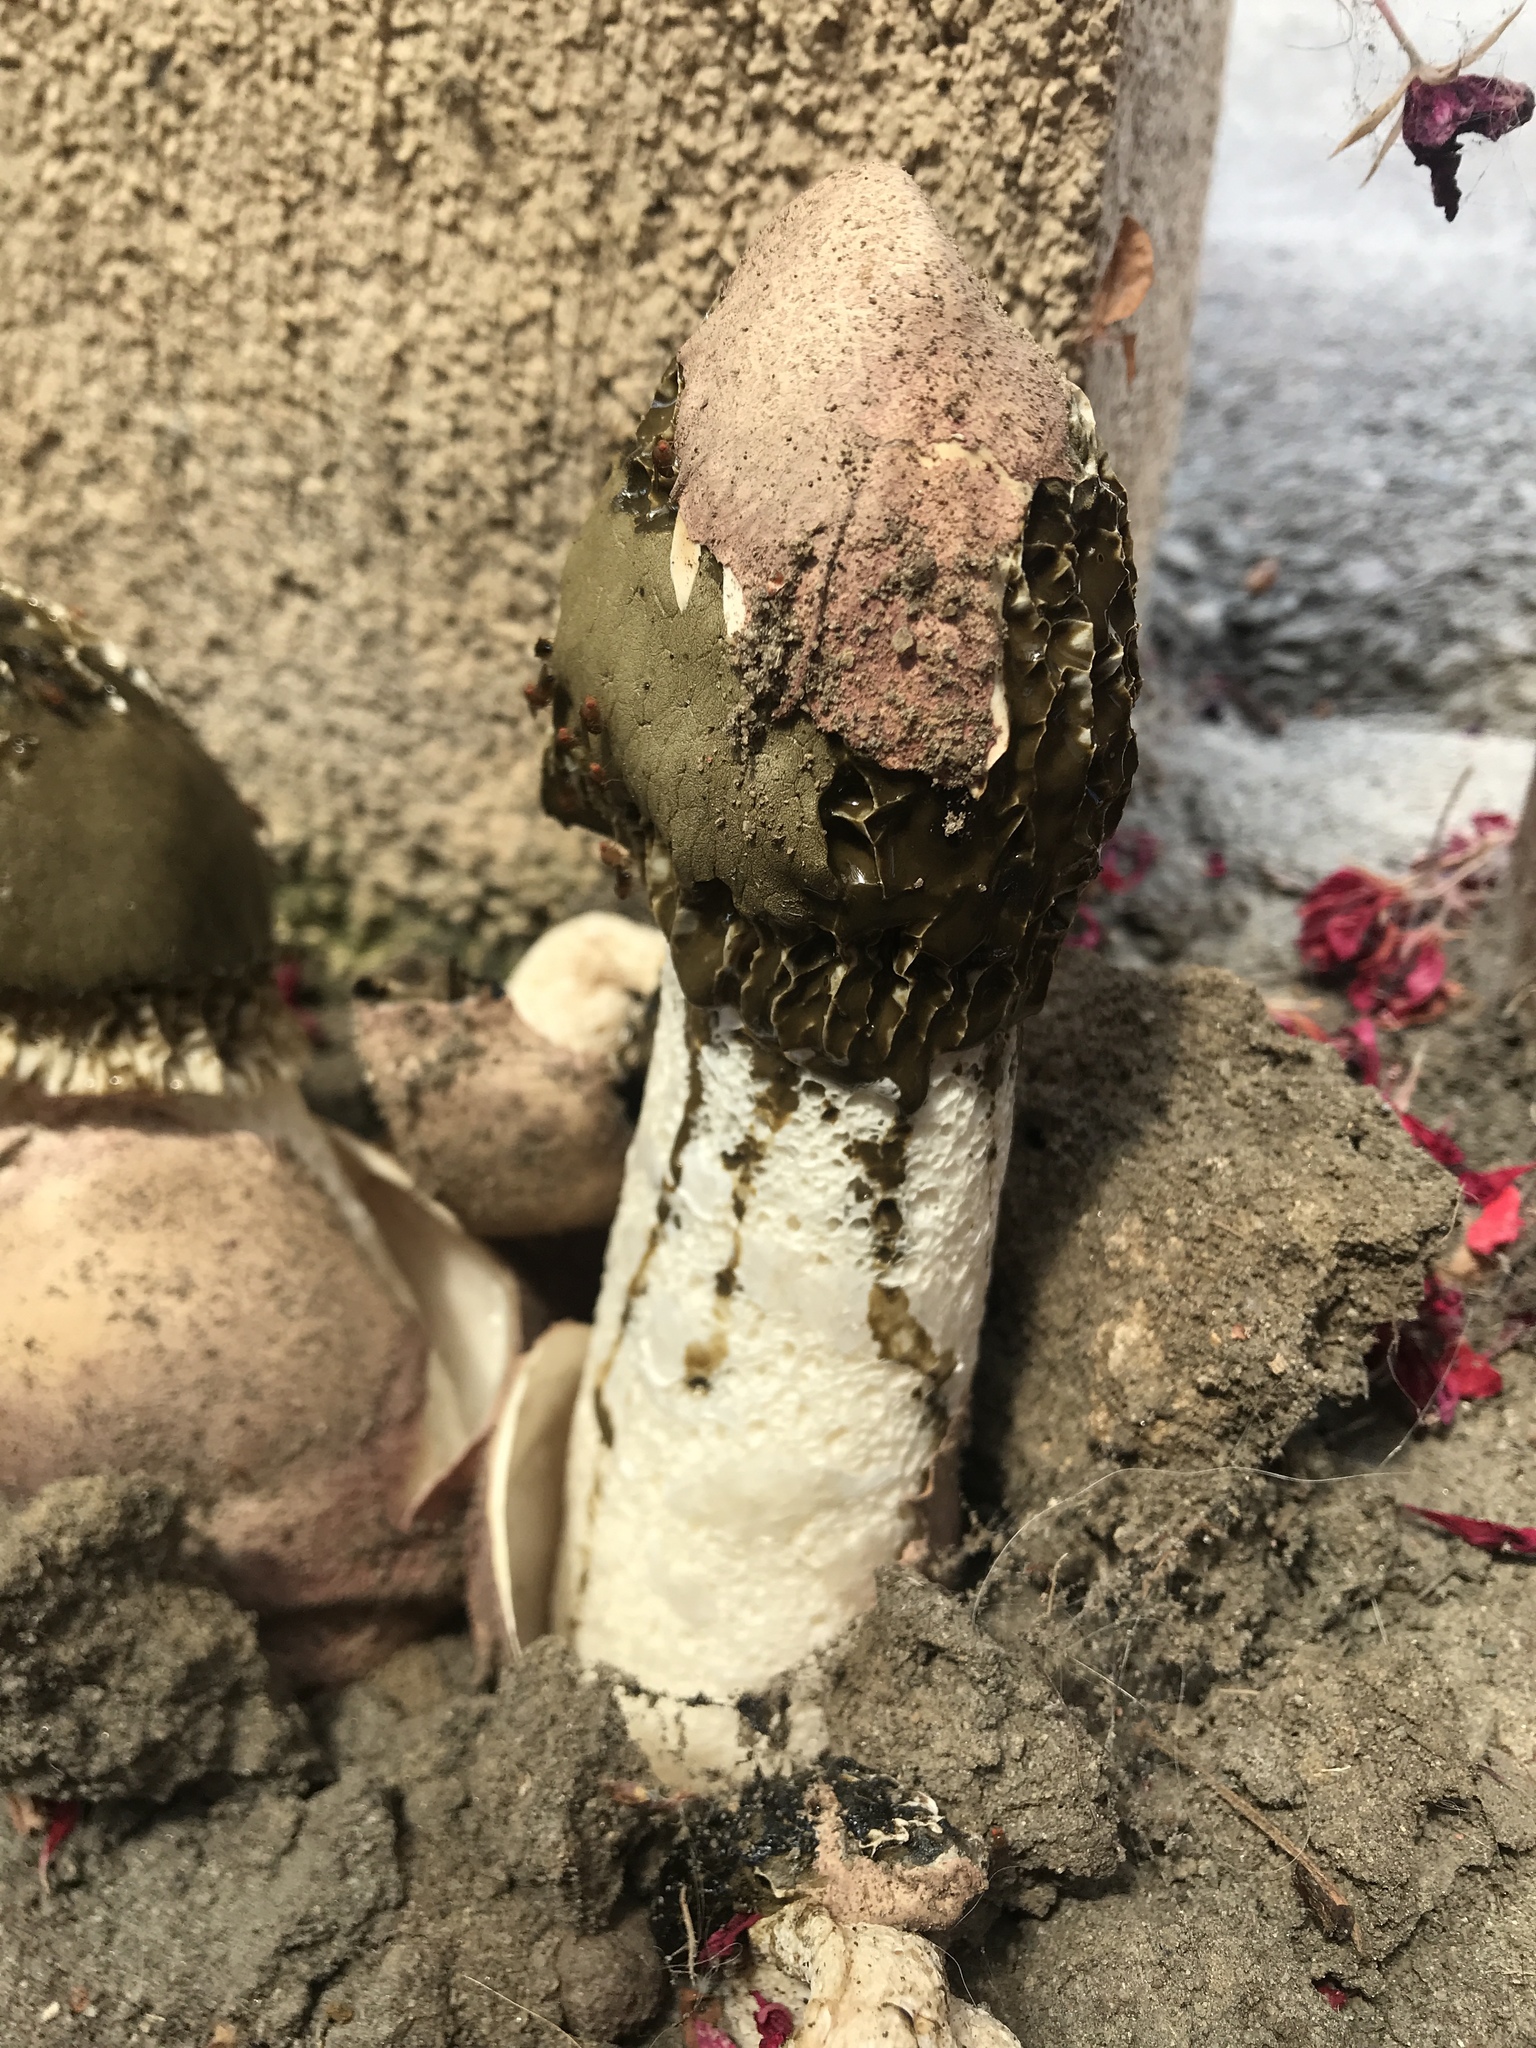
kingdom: Fungi
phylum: Basidiomycota
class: Agaricomycetes
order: Phallales
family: Phallaceae
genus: Phallus
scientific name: Phallus hadriani
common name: Sand stinkhorn
